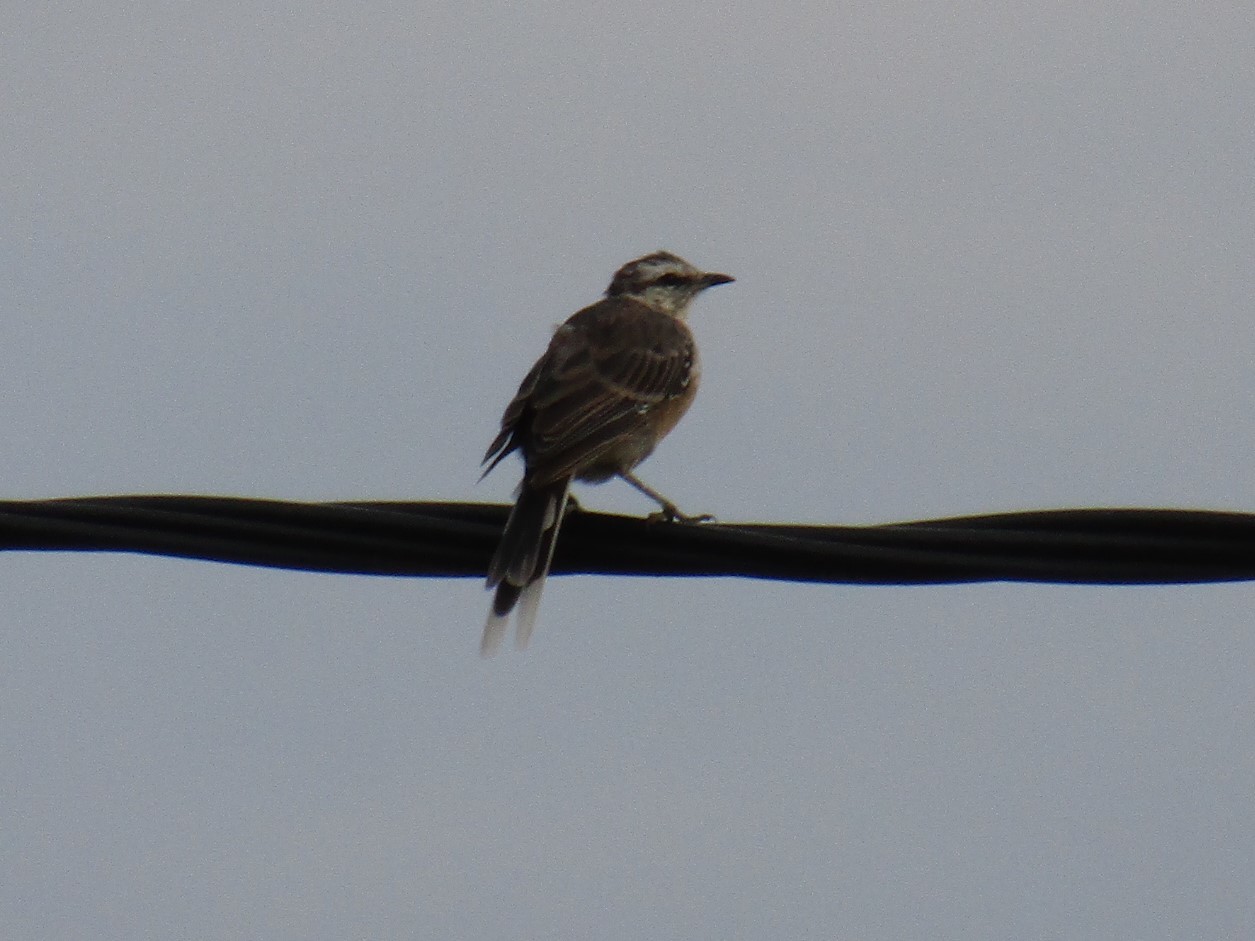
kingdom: Animalia
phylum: Chordata
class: Aves
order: Passeriformes
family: Mimidae
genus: Mimus
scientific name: Mimus saturninus
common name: Chalk-browed mockingbird
